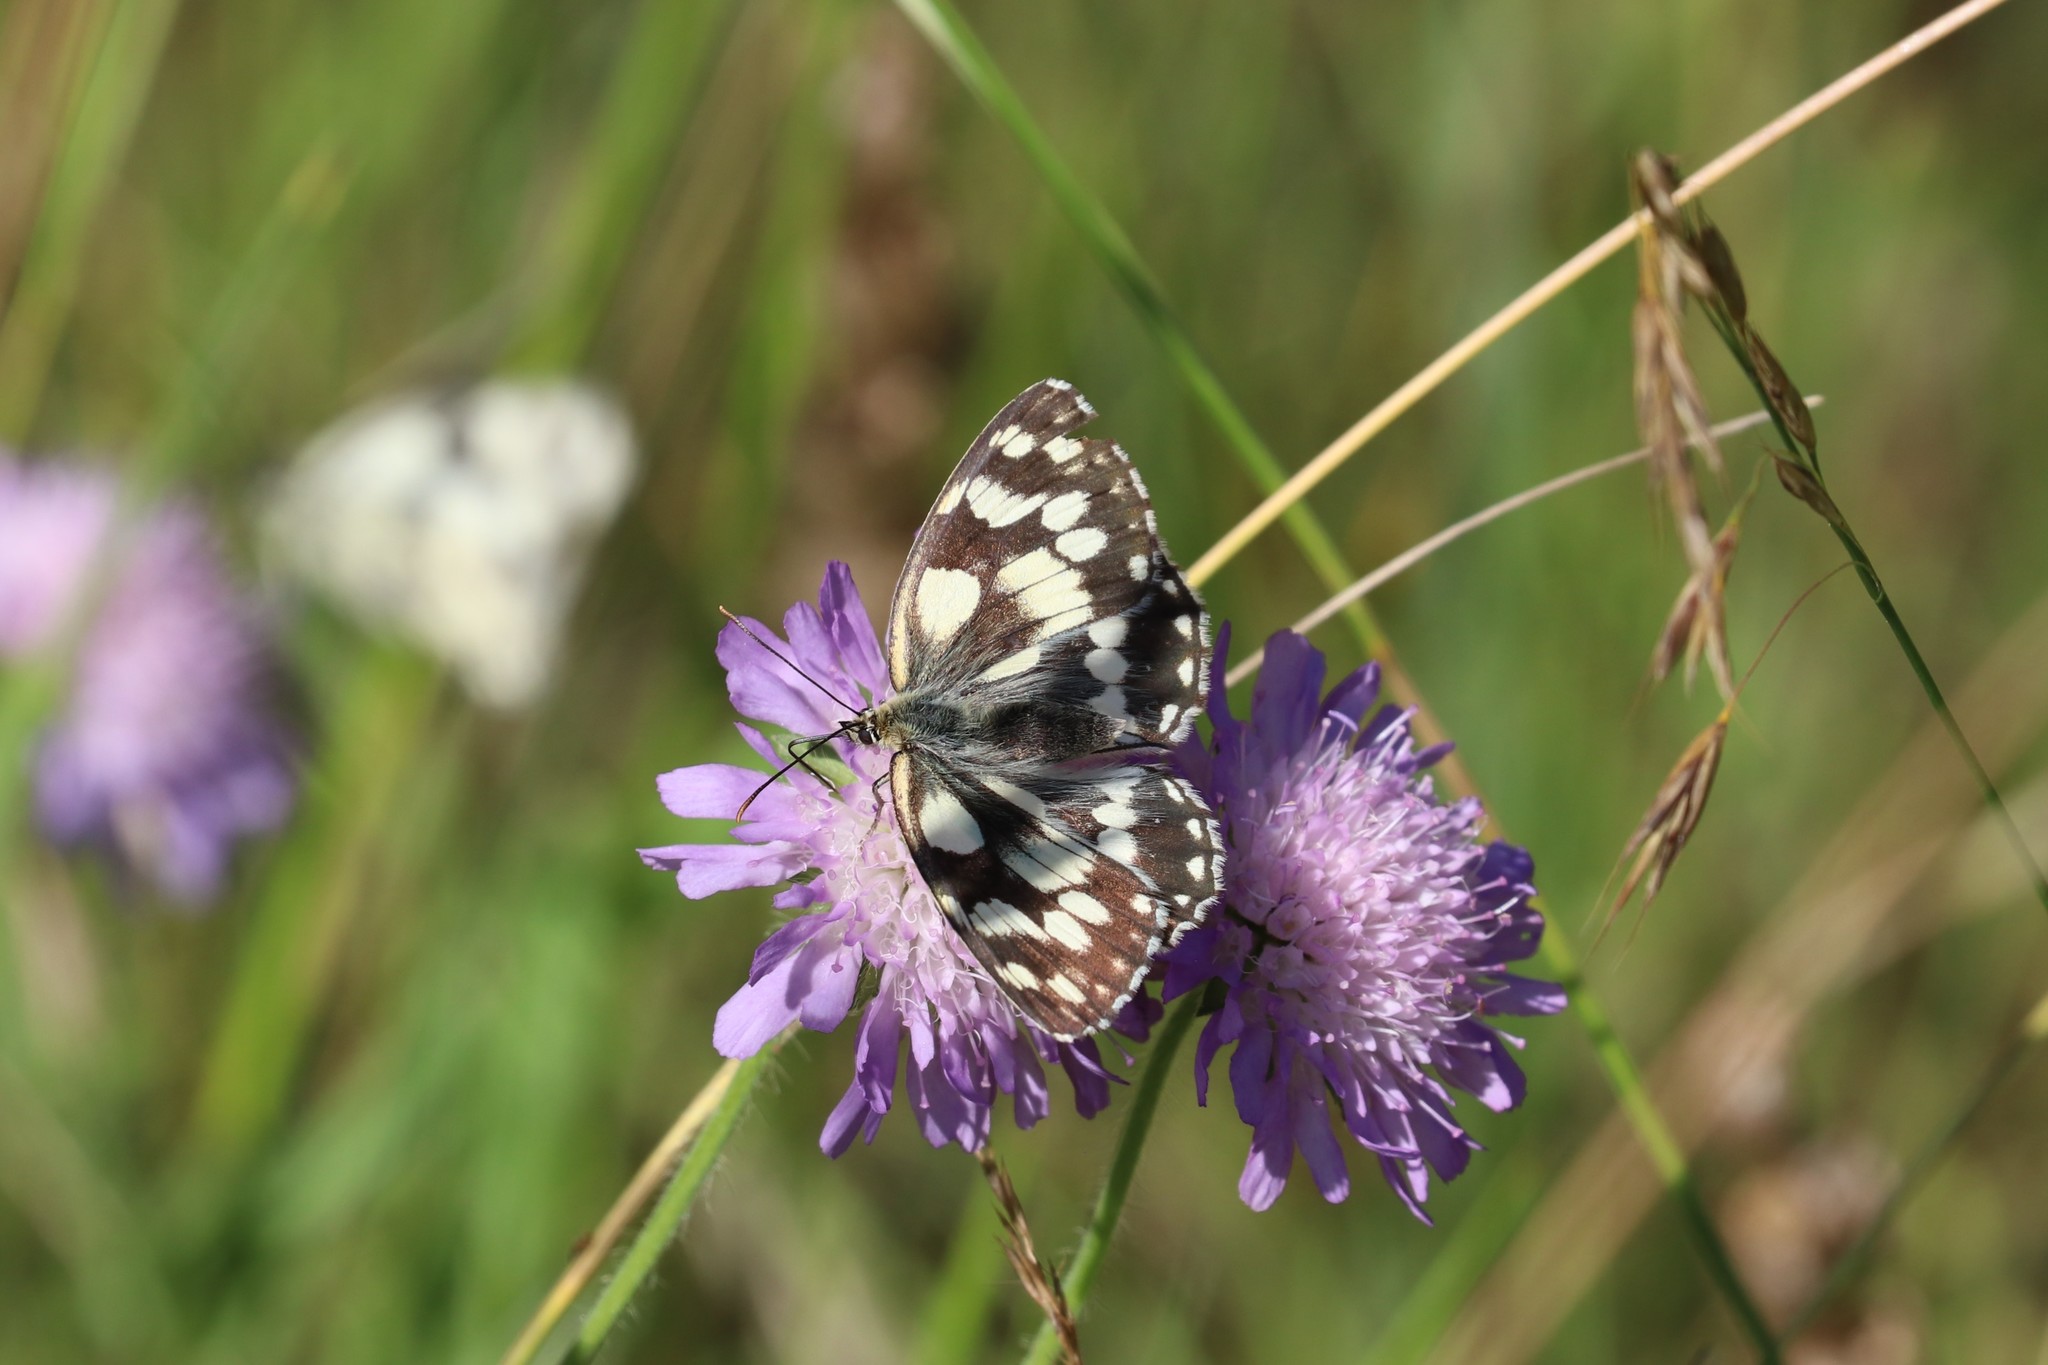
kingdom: Animalia
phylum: Arthropoda
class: Insecta
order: Lepidoptera
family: Nymphalidae
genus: Melanargia
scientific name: Melanargia galathea
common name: Marbled white
